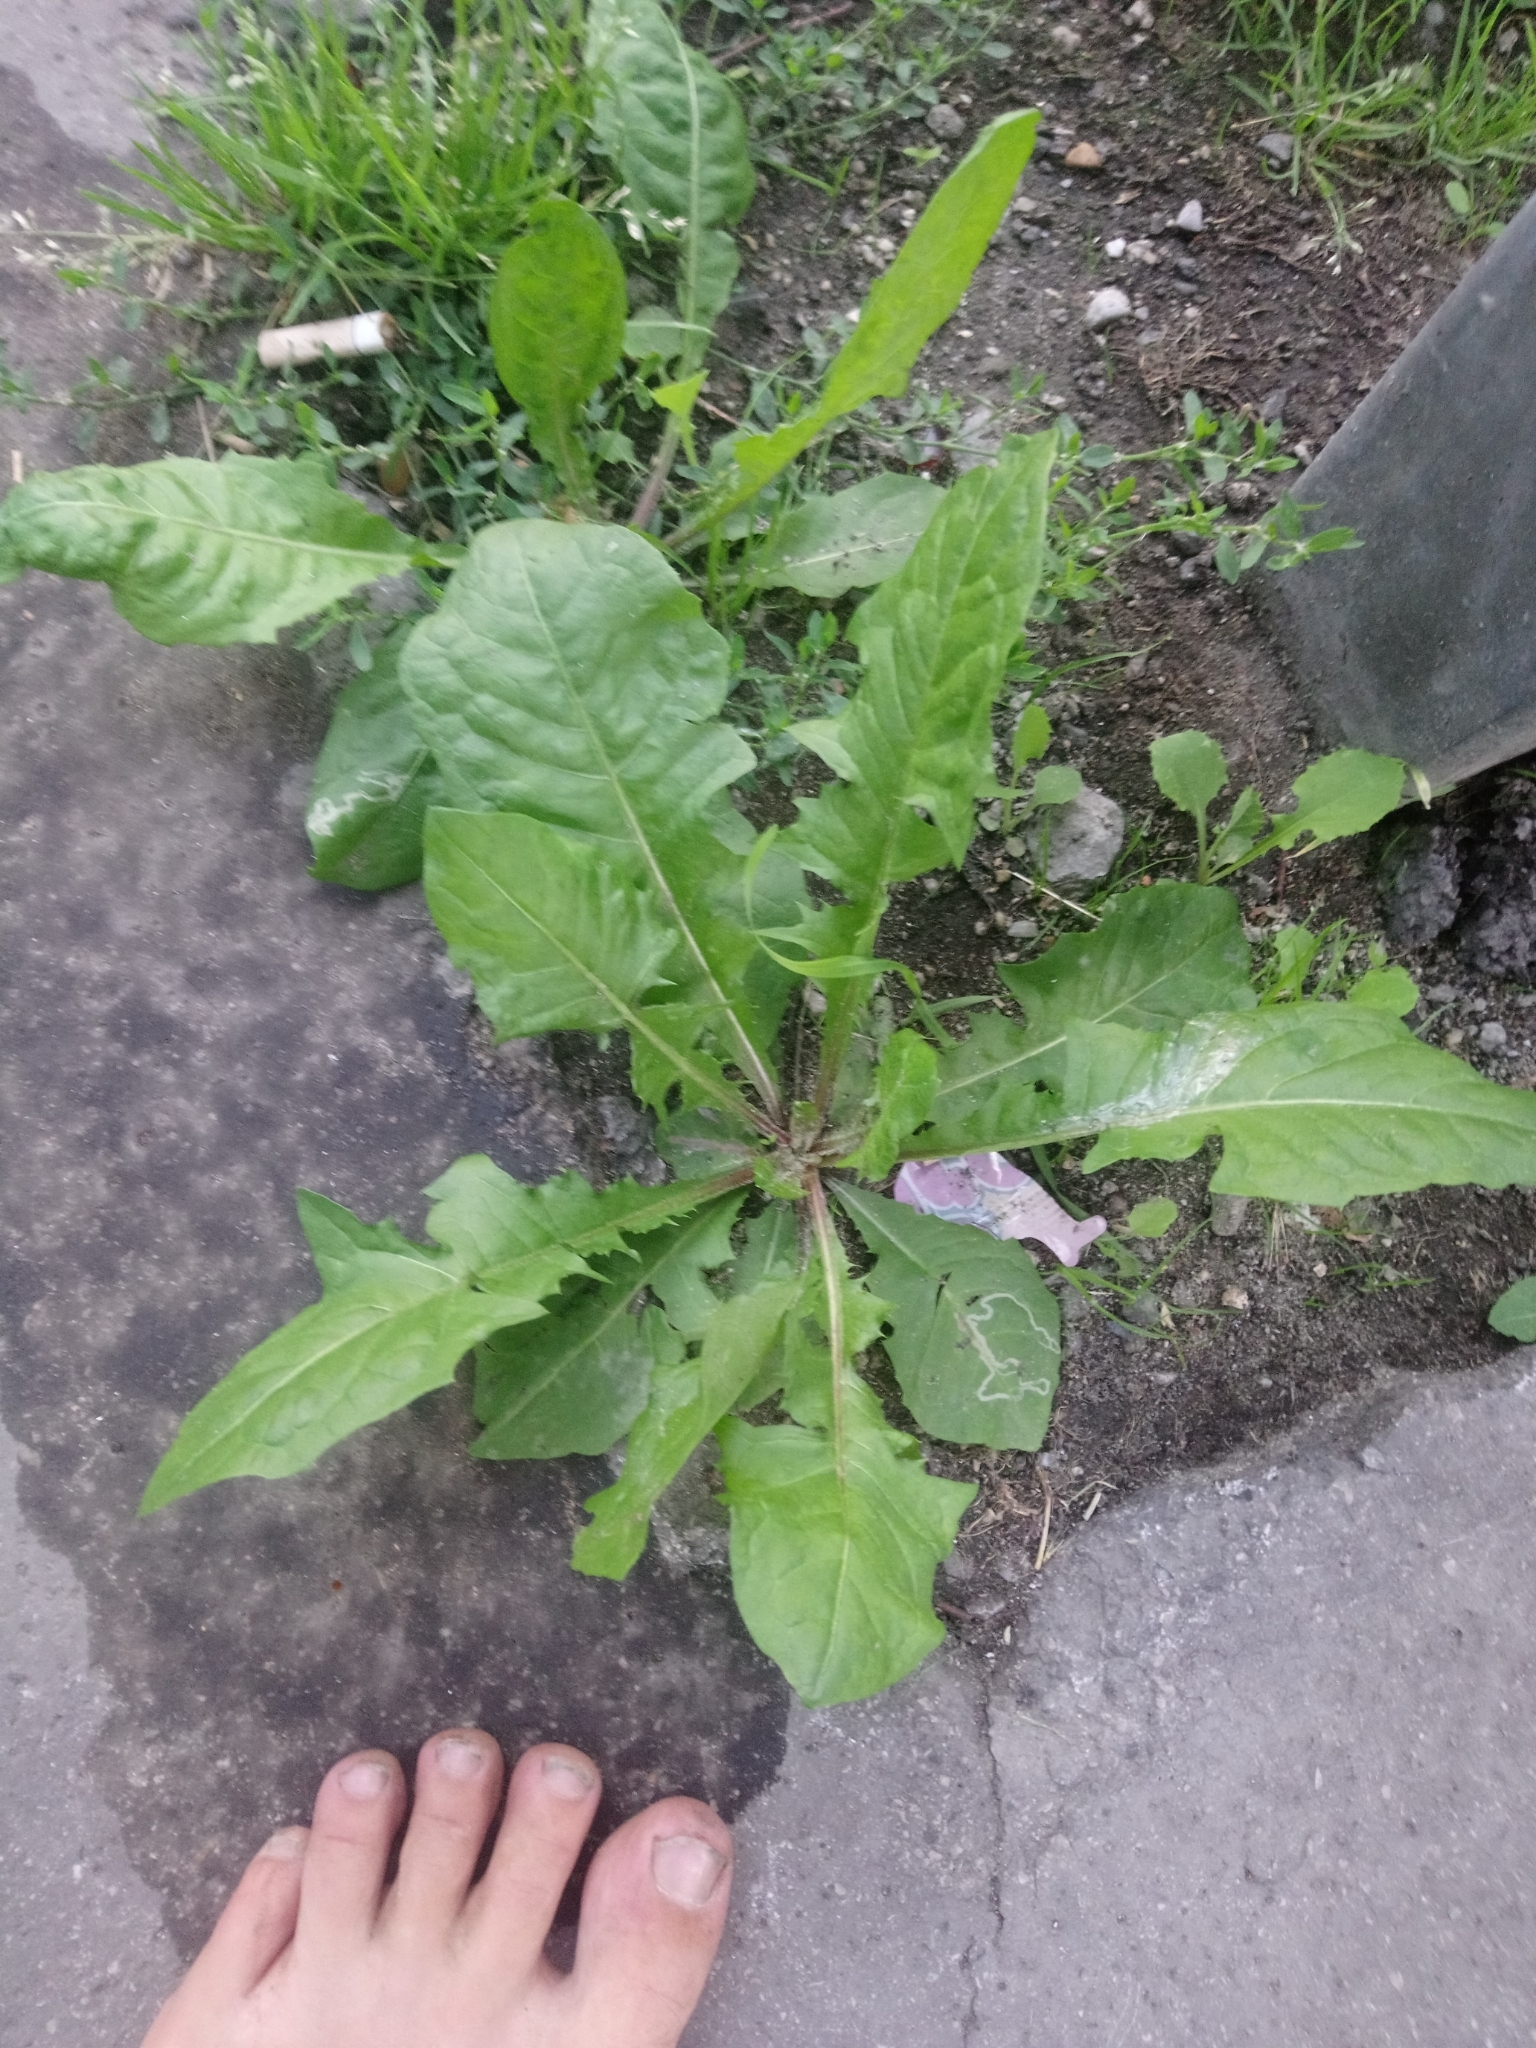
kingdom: Plantae
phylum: Tracheophyta
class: Magnoliopsida
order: Asterales
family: Asteraceae
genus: Taraxacum
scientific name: Taraxacum
